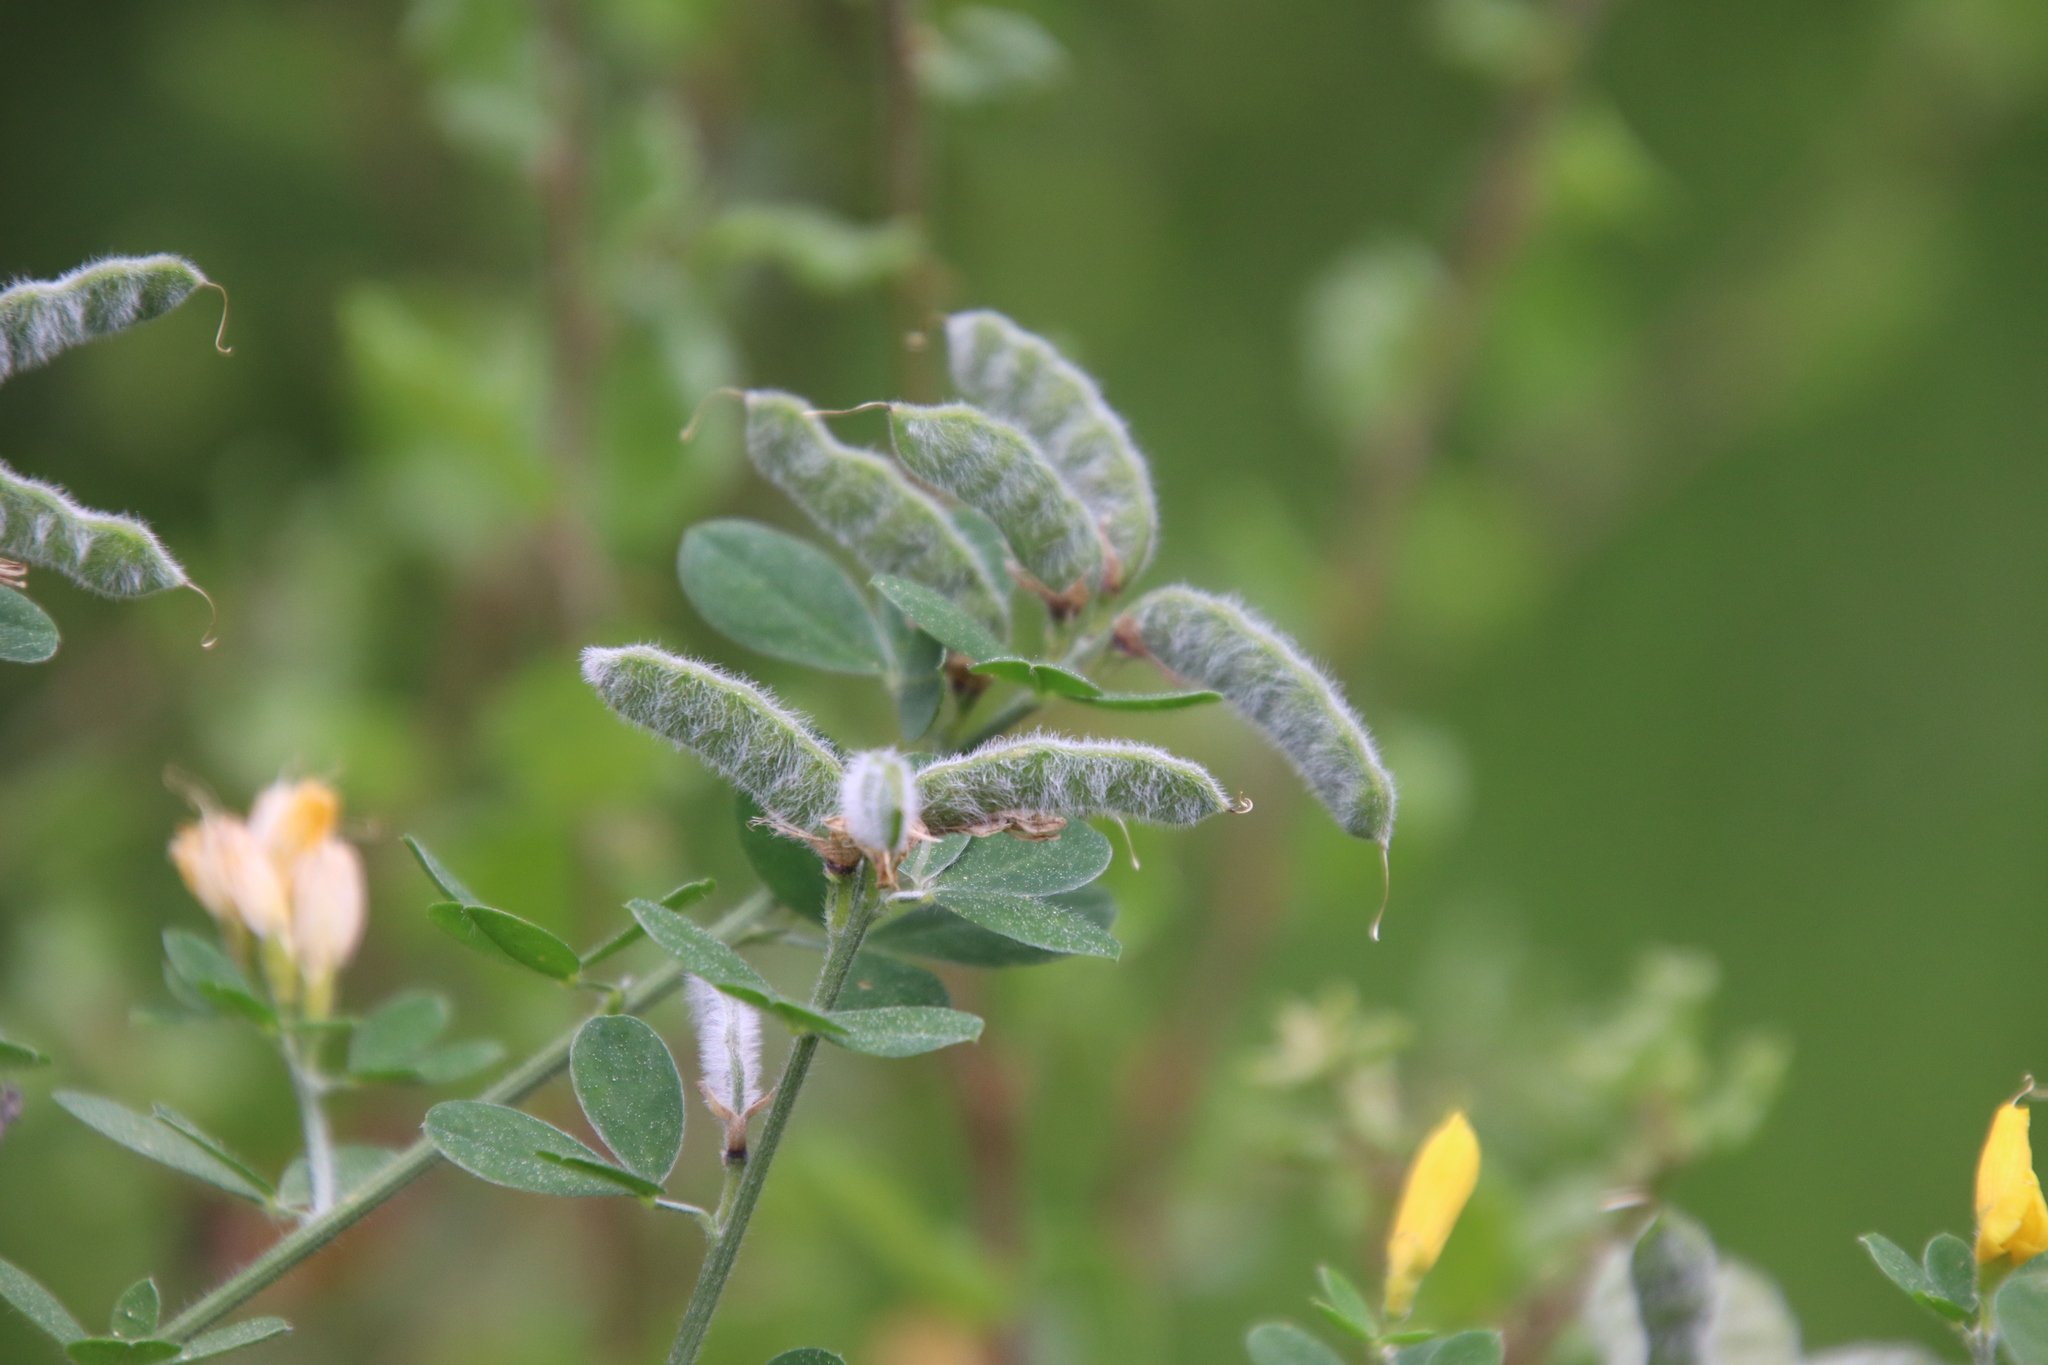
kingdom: Plantae
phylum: Tracheophyta
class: Magnoliopsida
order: Fabales
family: Fabaceae
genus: Genista
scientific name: Genista monspessulana
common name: Montpellier broom
